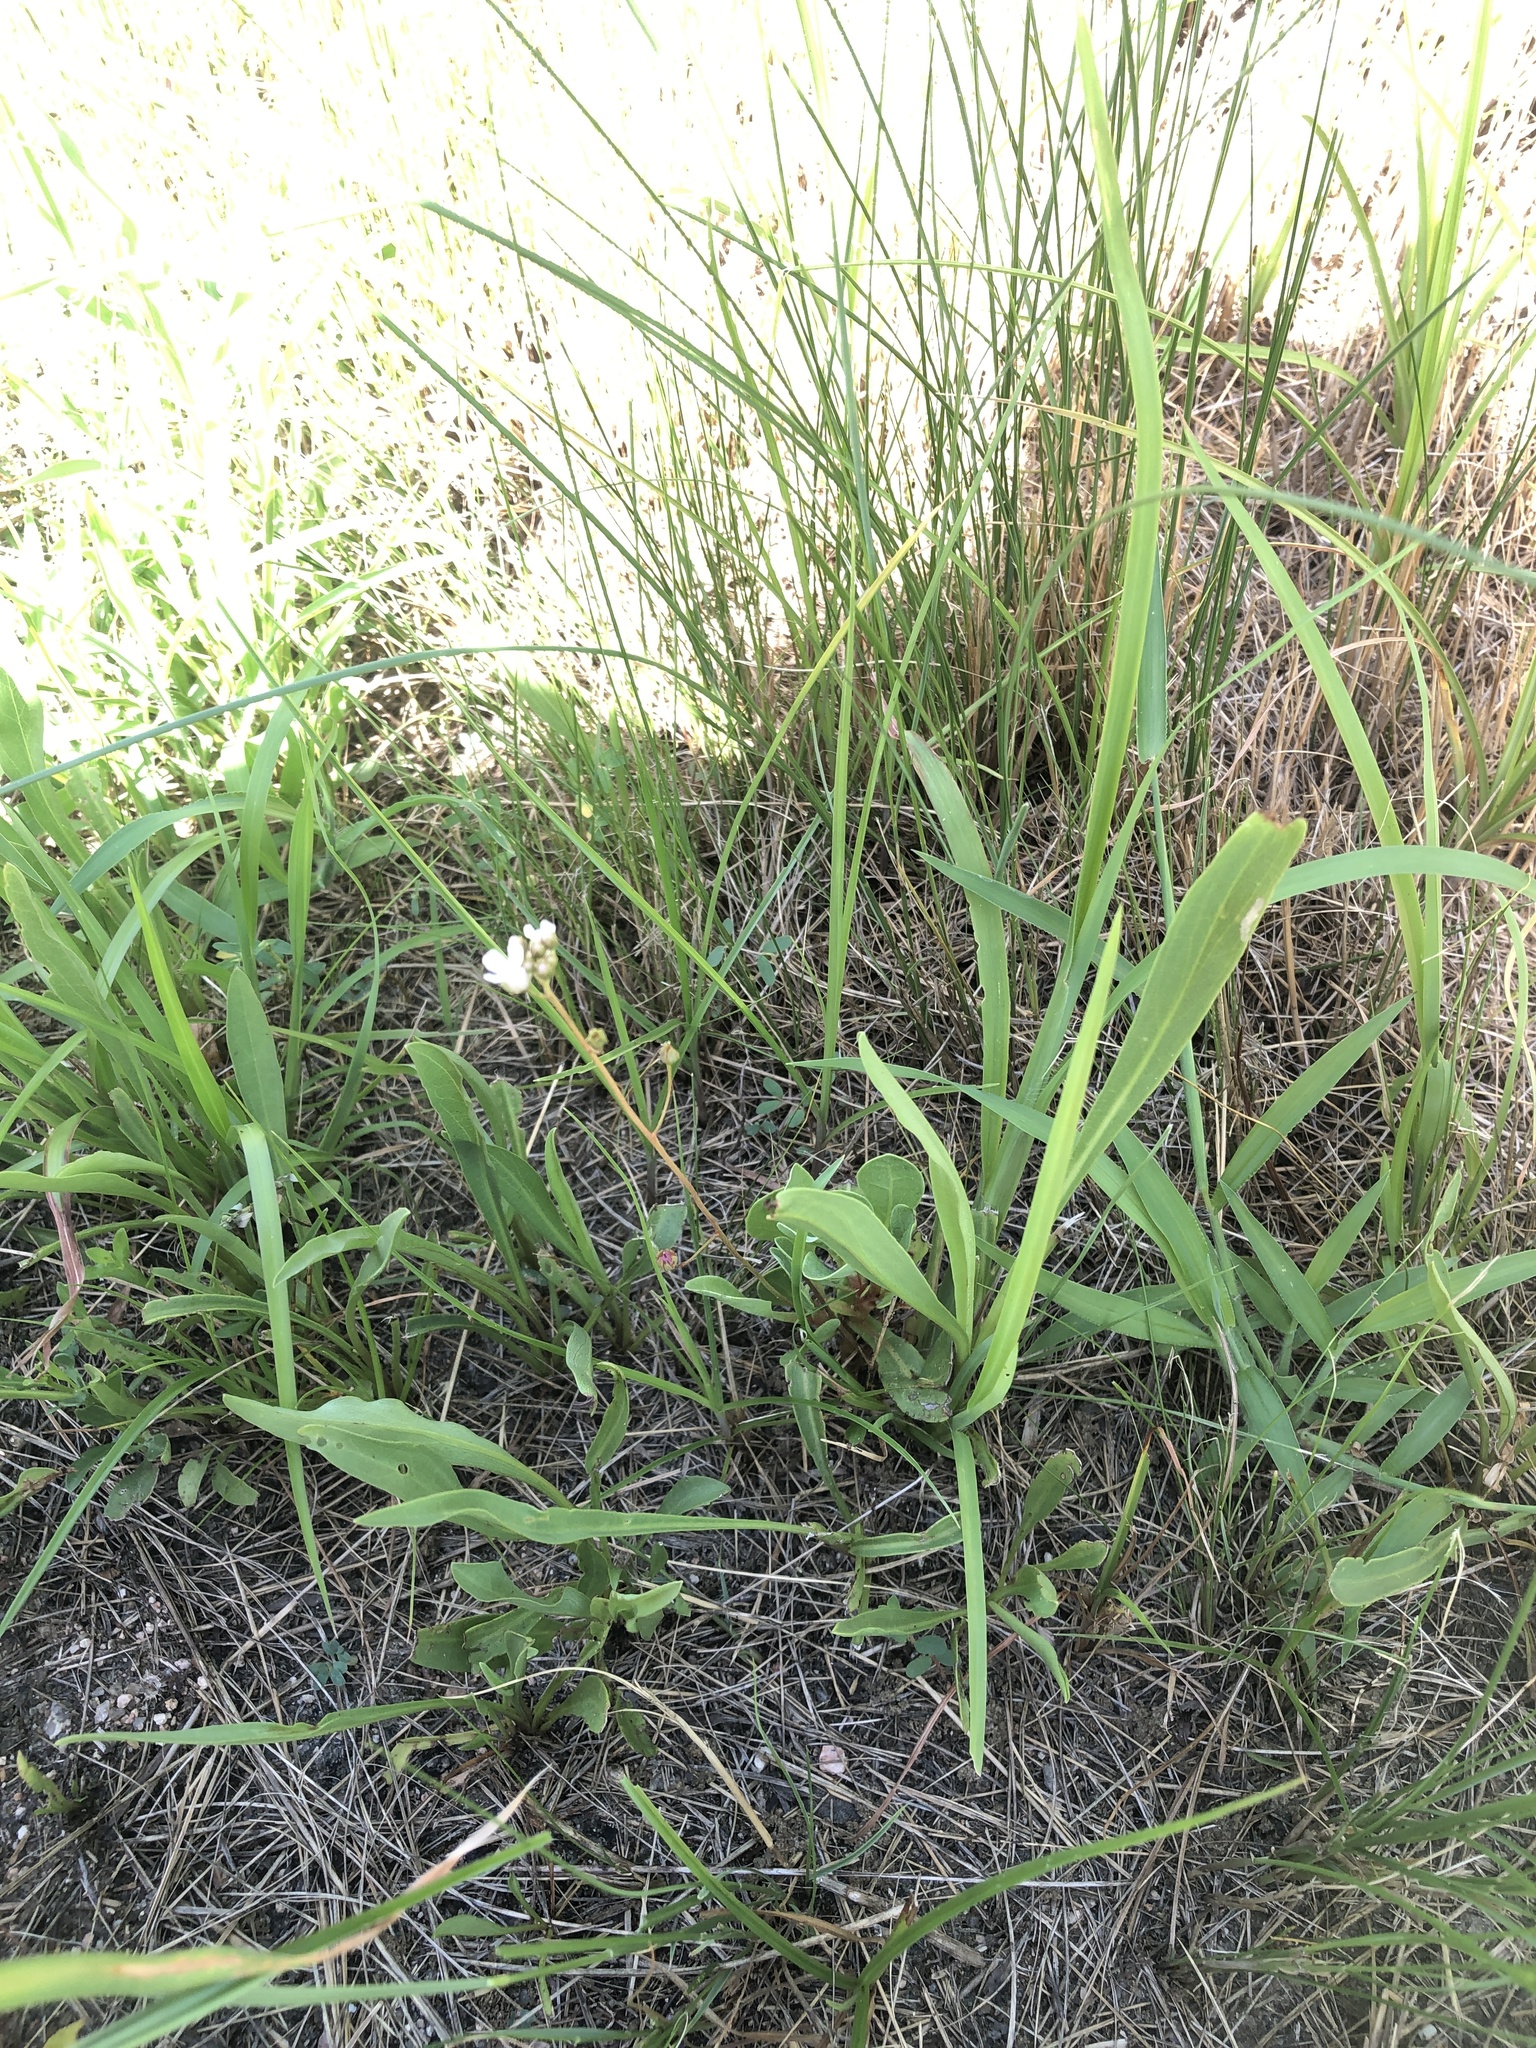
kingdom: Plantae
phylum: Tracheophyta
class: Magnoliopsida
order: Ericales
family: Primulaceae
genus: Samolus
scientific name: Samolus ebracteatus
